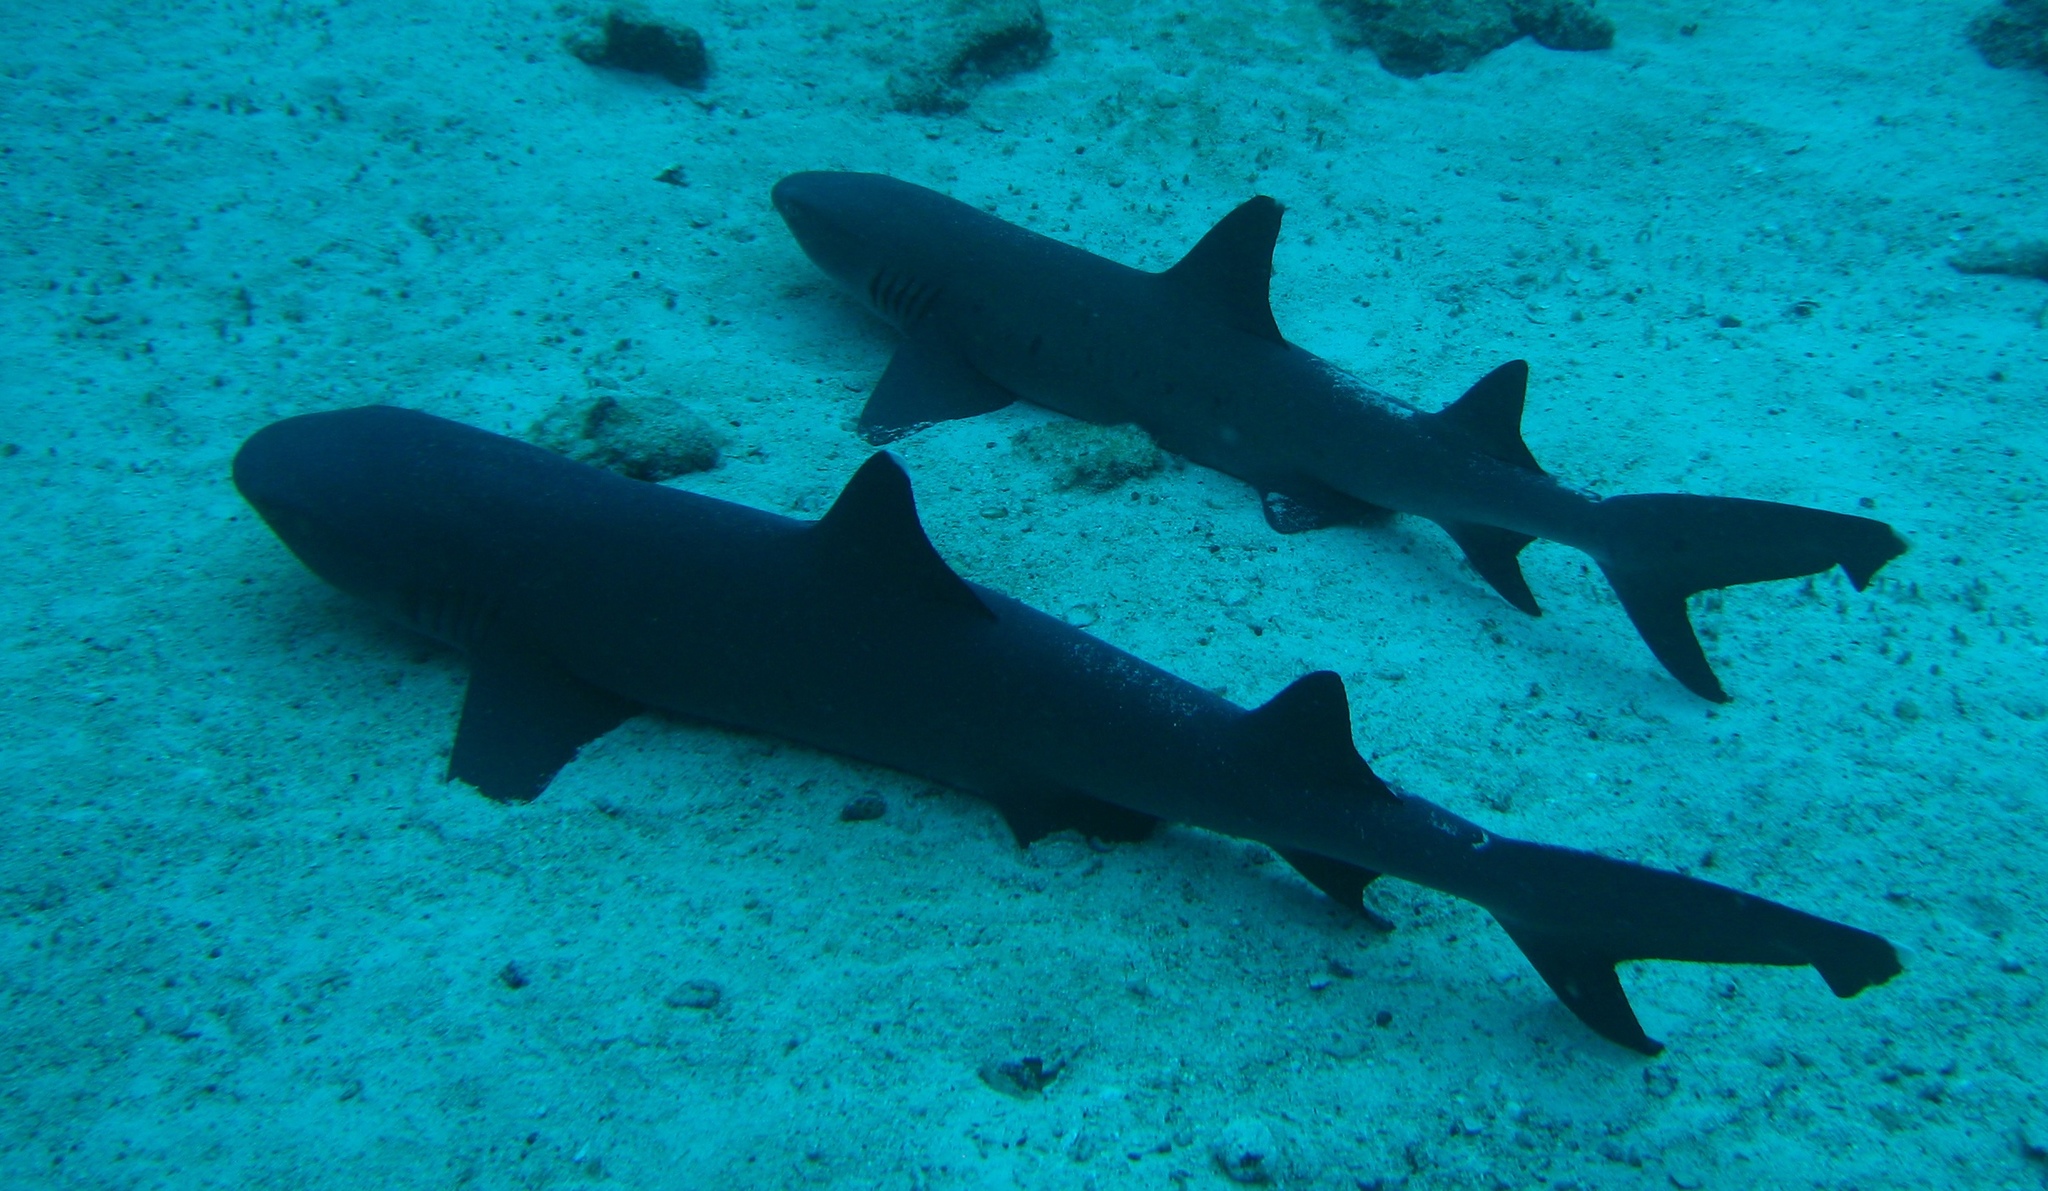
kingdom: Animalia
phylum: Chordata
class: Elasmobranchii
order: Carcharhiniformes
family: Carcharhinidae
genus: Triaenodon
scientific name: Triaenodon obesus
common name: Whitetip reef shark
